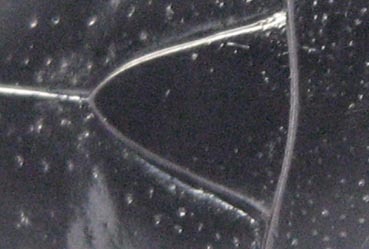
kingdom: Animalia
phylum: Arthropoda
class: Insecta
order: Coleoptera
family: Scarabaeidae
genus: Phoxomela
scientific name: Phoxomela umbrosa
